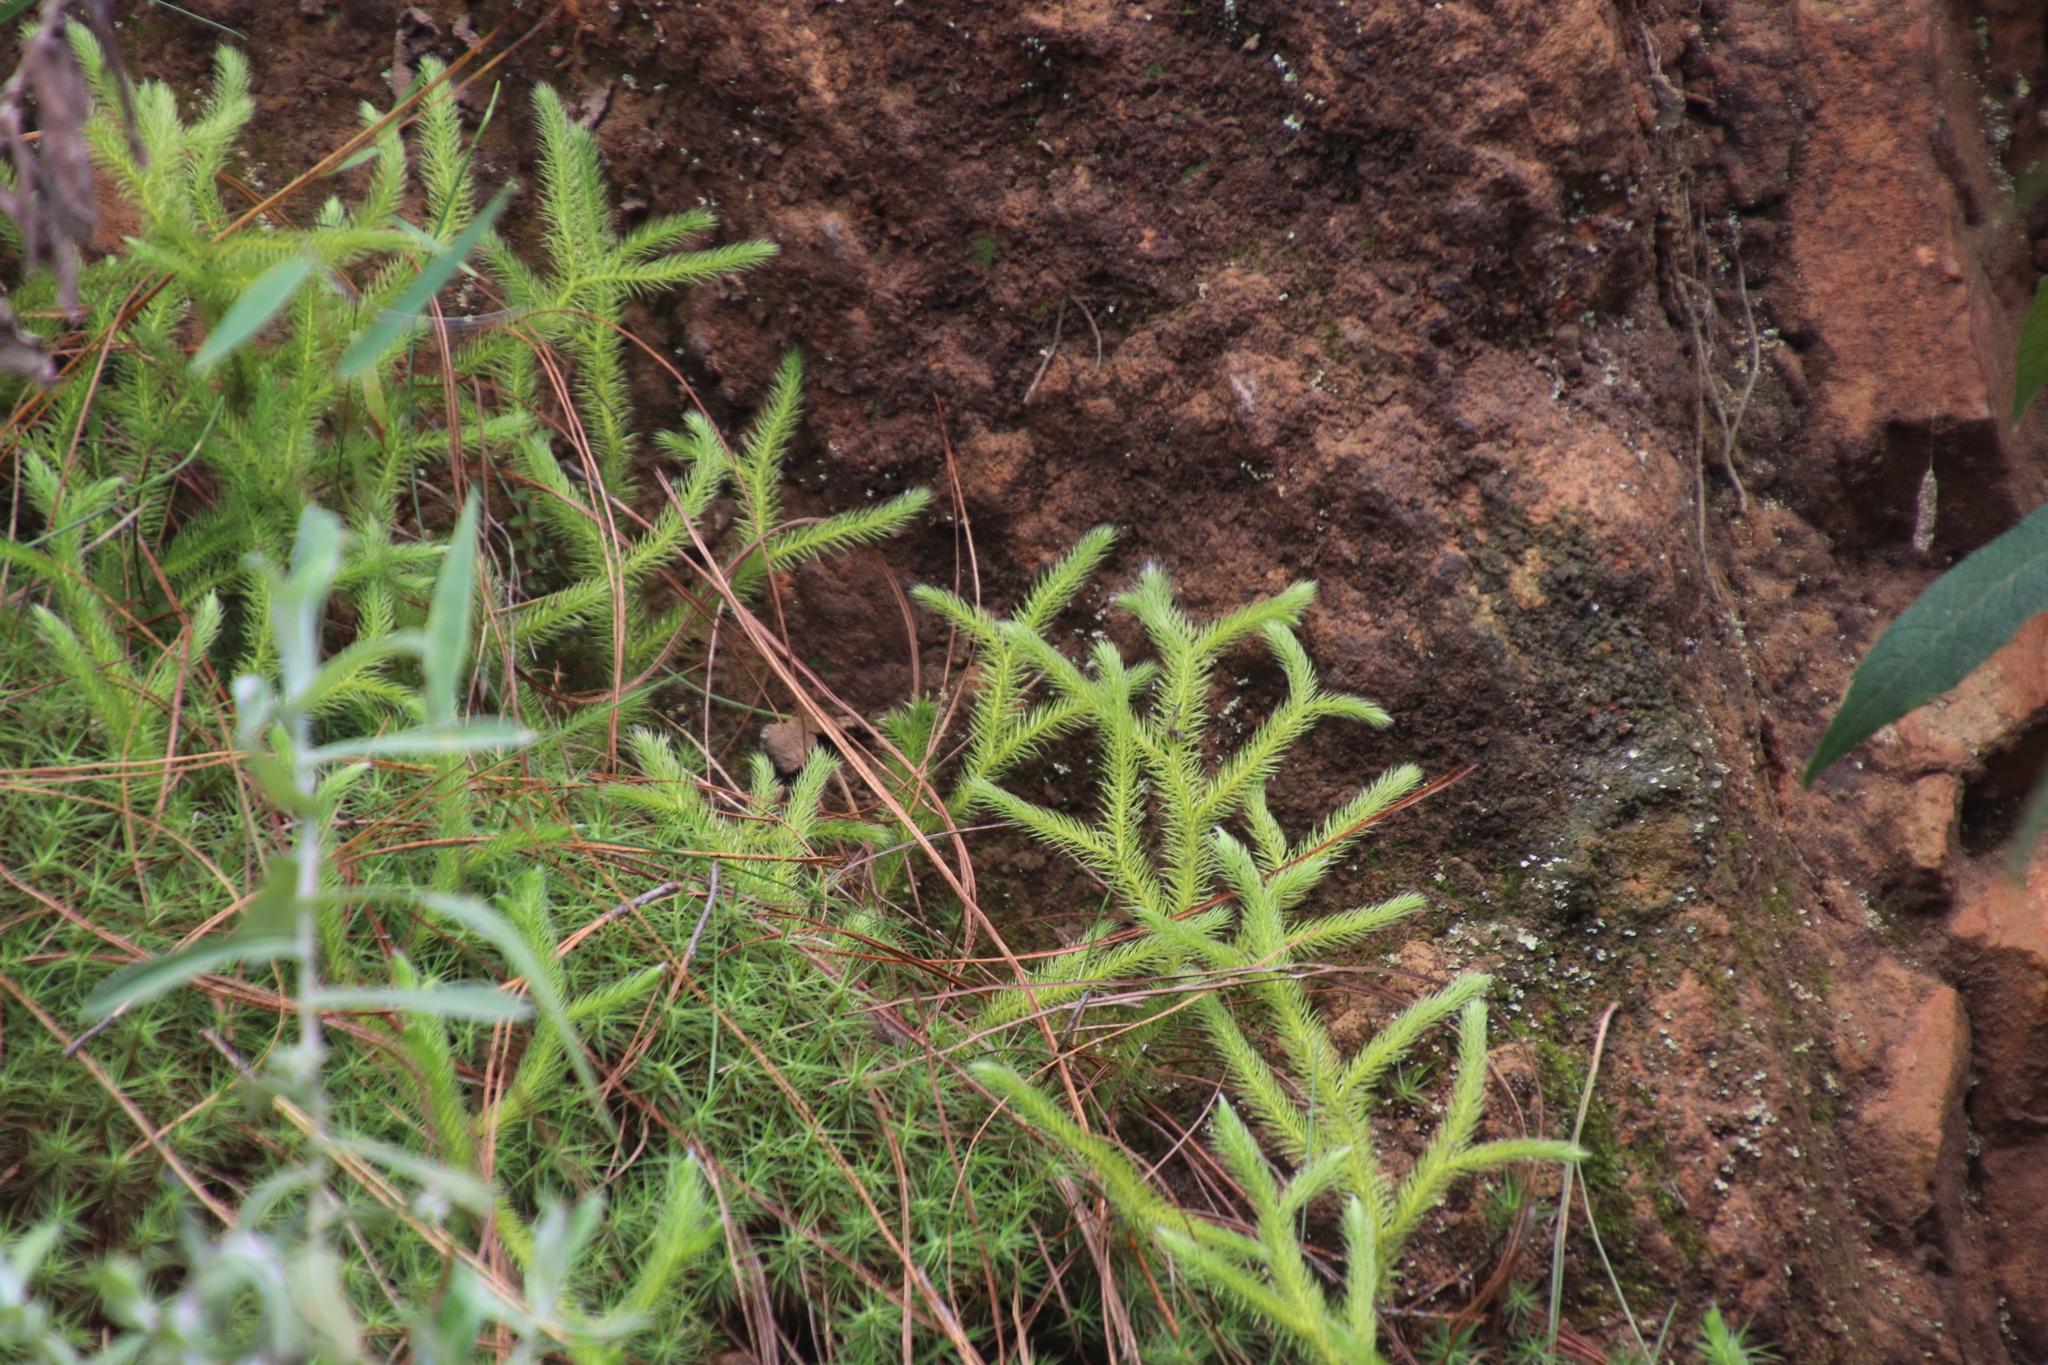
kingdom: Plantae
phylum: Tracheophyta
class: Lycopodiopsida
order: Lycopodiales
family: Lycopodiaceae
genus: Lycopodium
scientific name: Lycopodium clavatum
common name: Stag's-horn clubmoss
